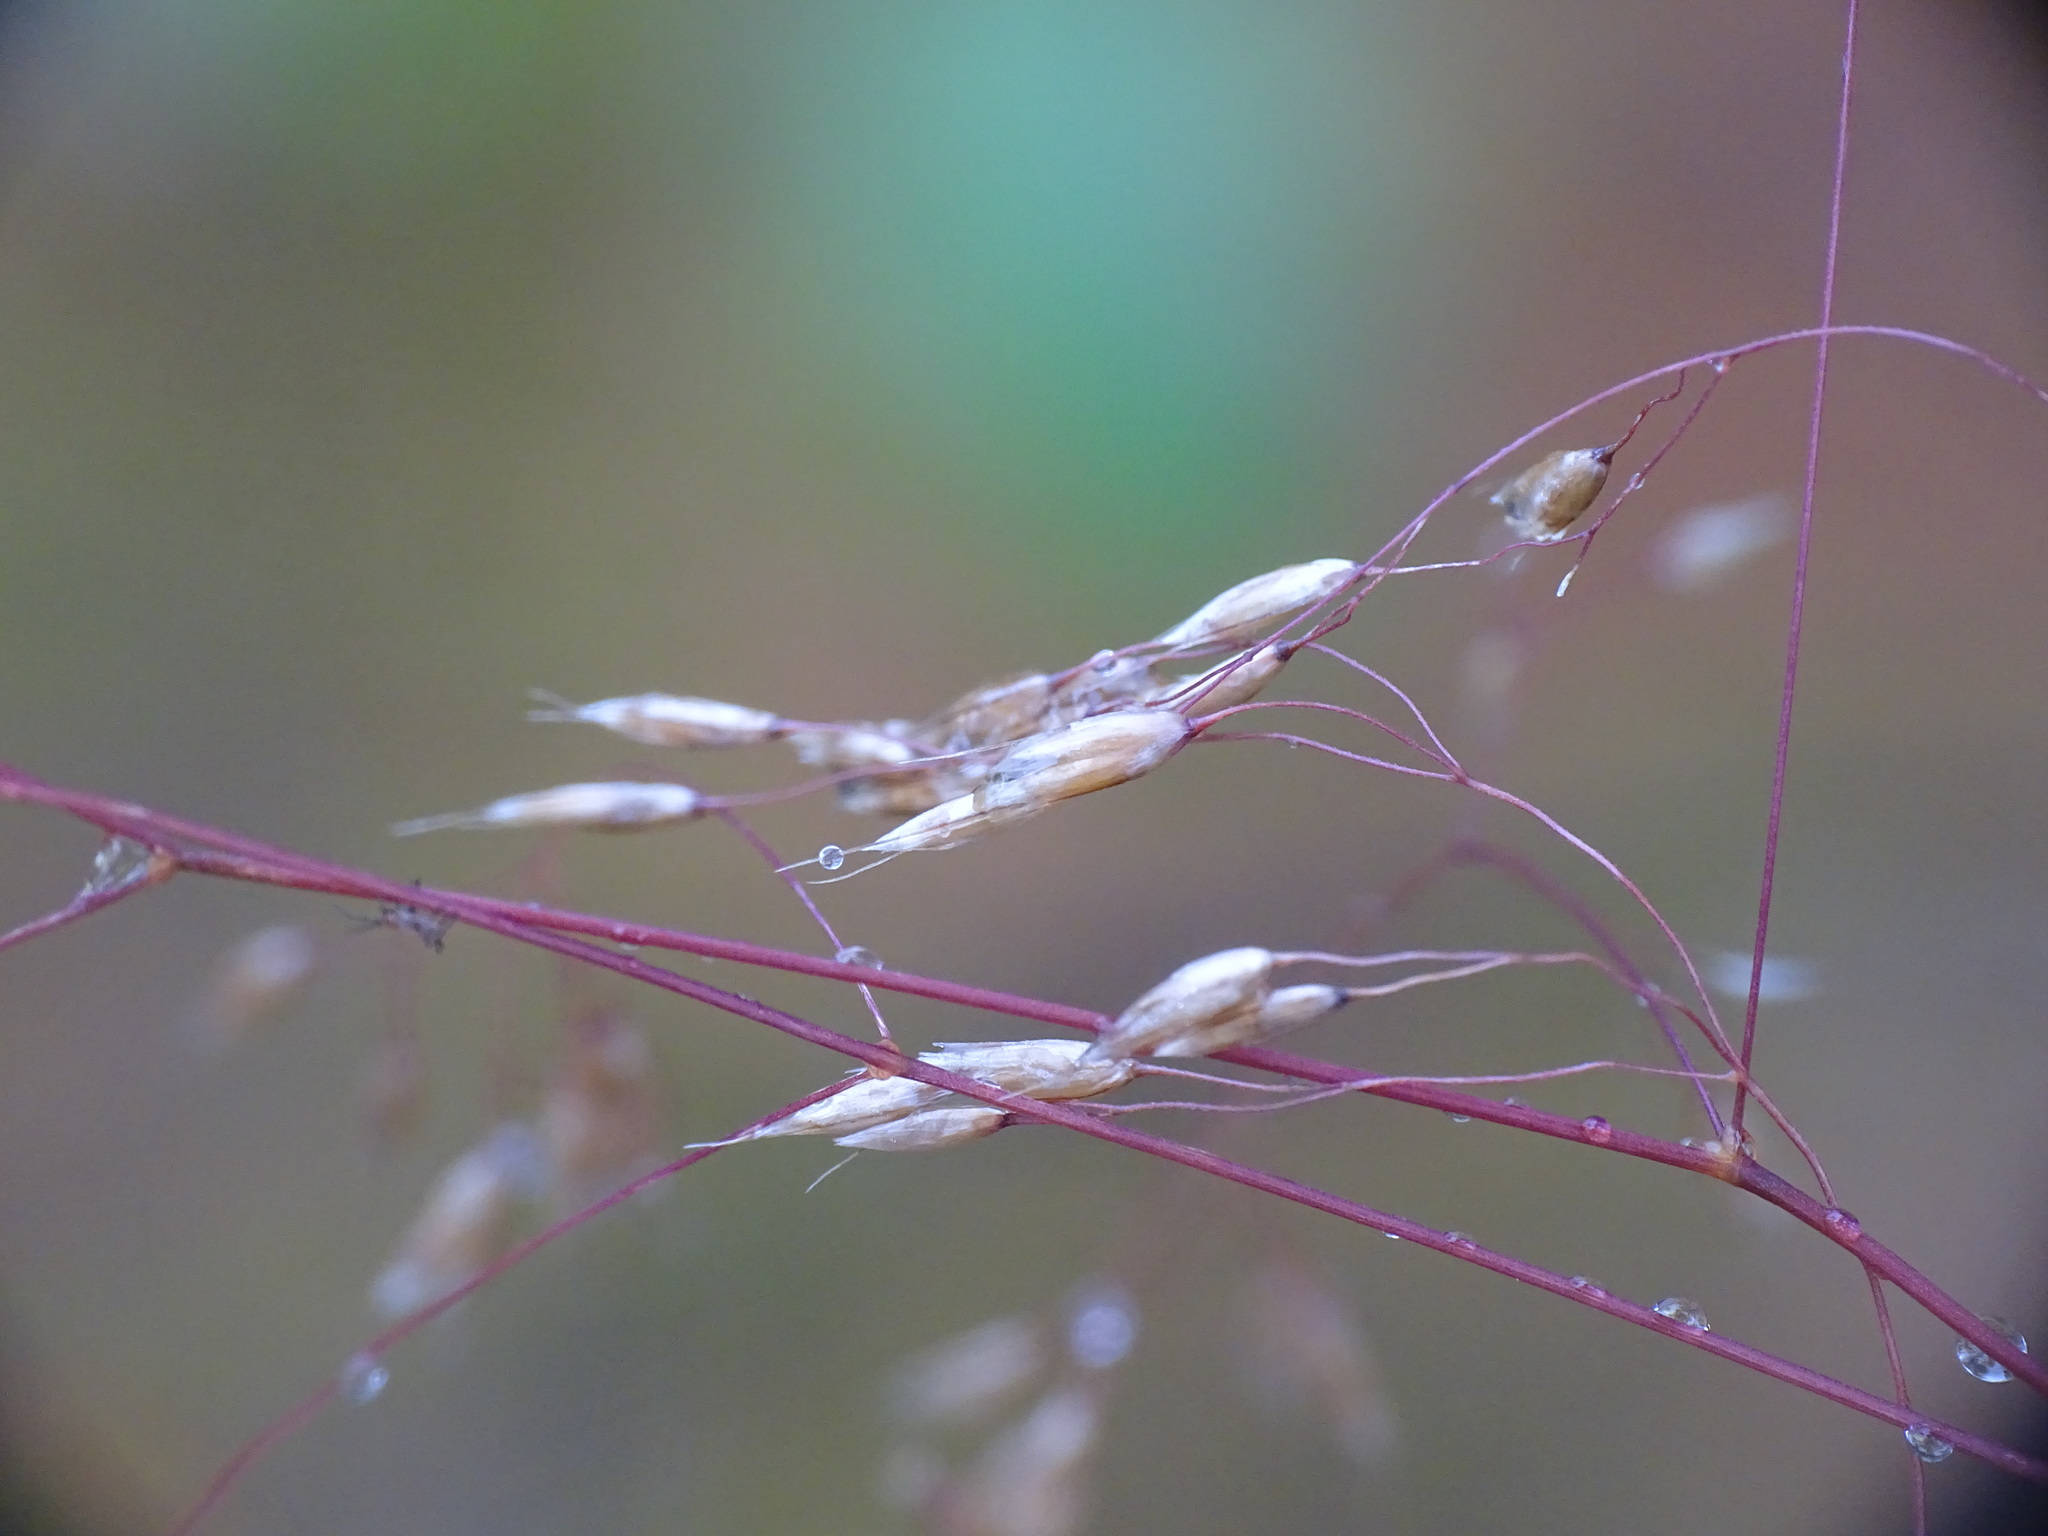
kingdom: Plantae
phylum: Tracheophyta
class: Liliopsida
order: Poales
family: Poaceae
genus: Avenella
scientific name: Avenella flexuosa
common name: Wavy hairgrass
